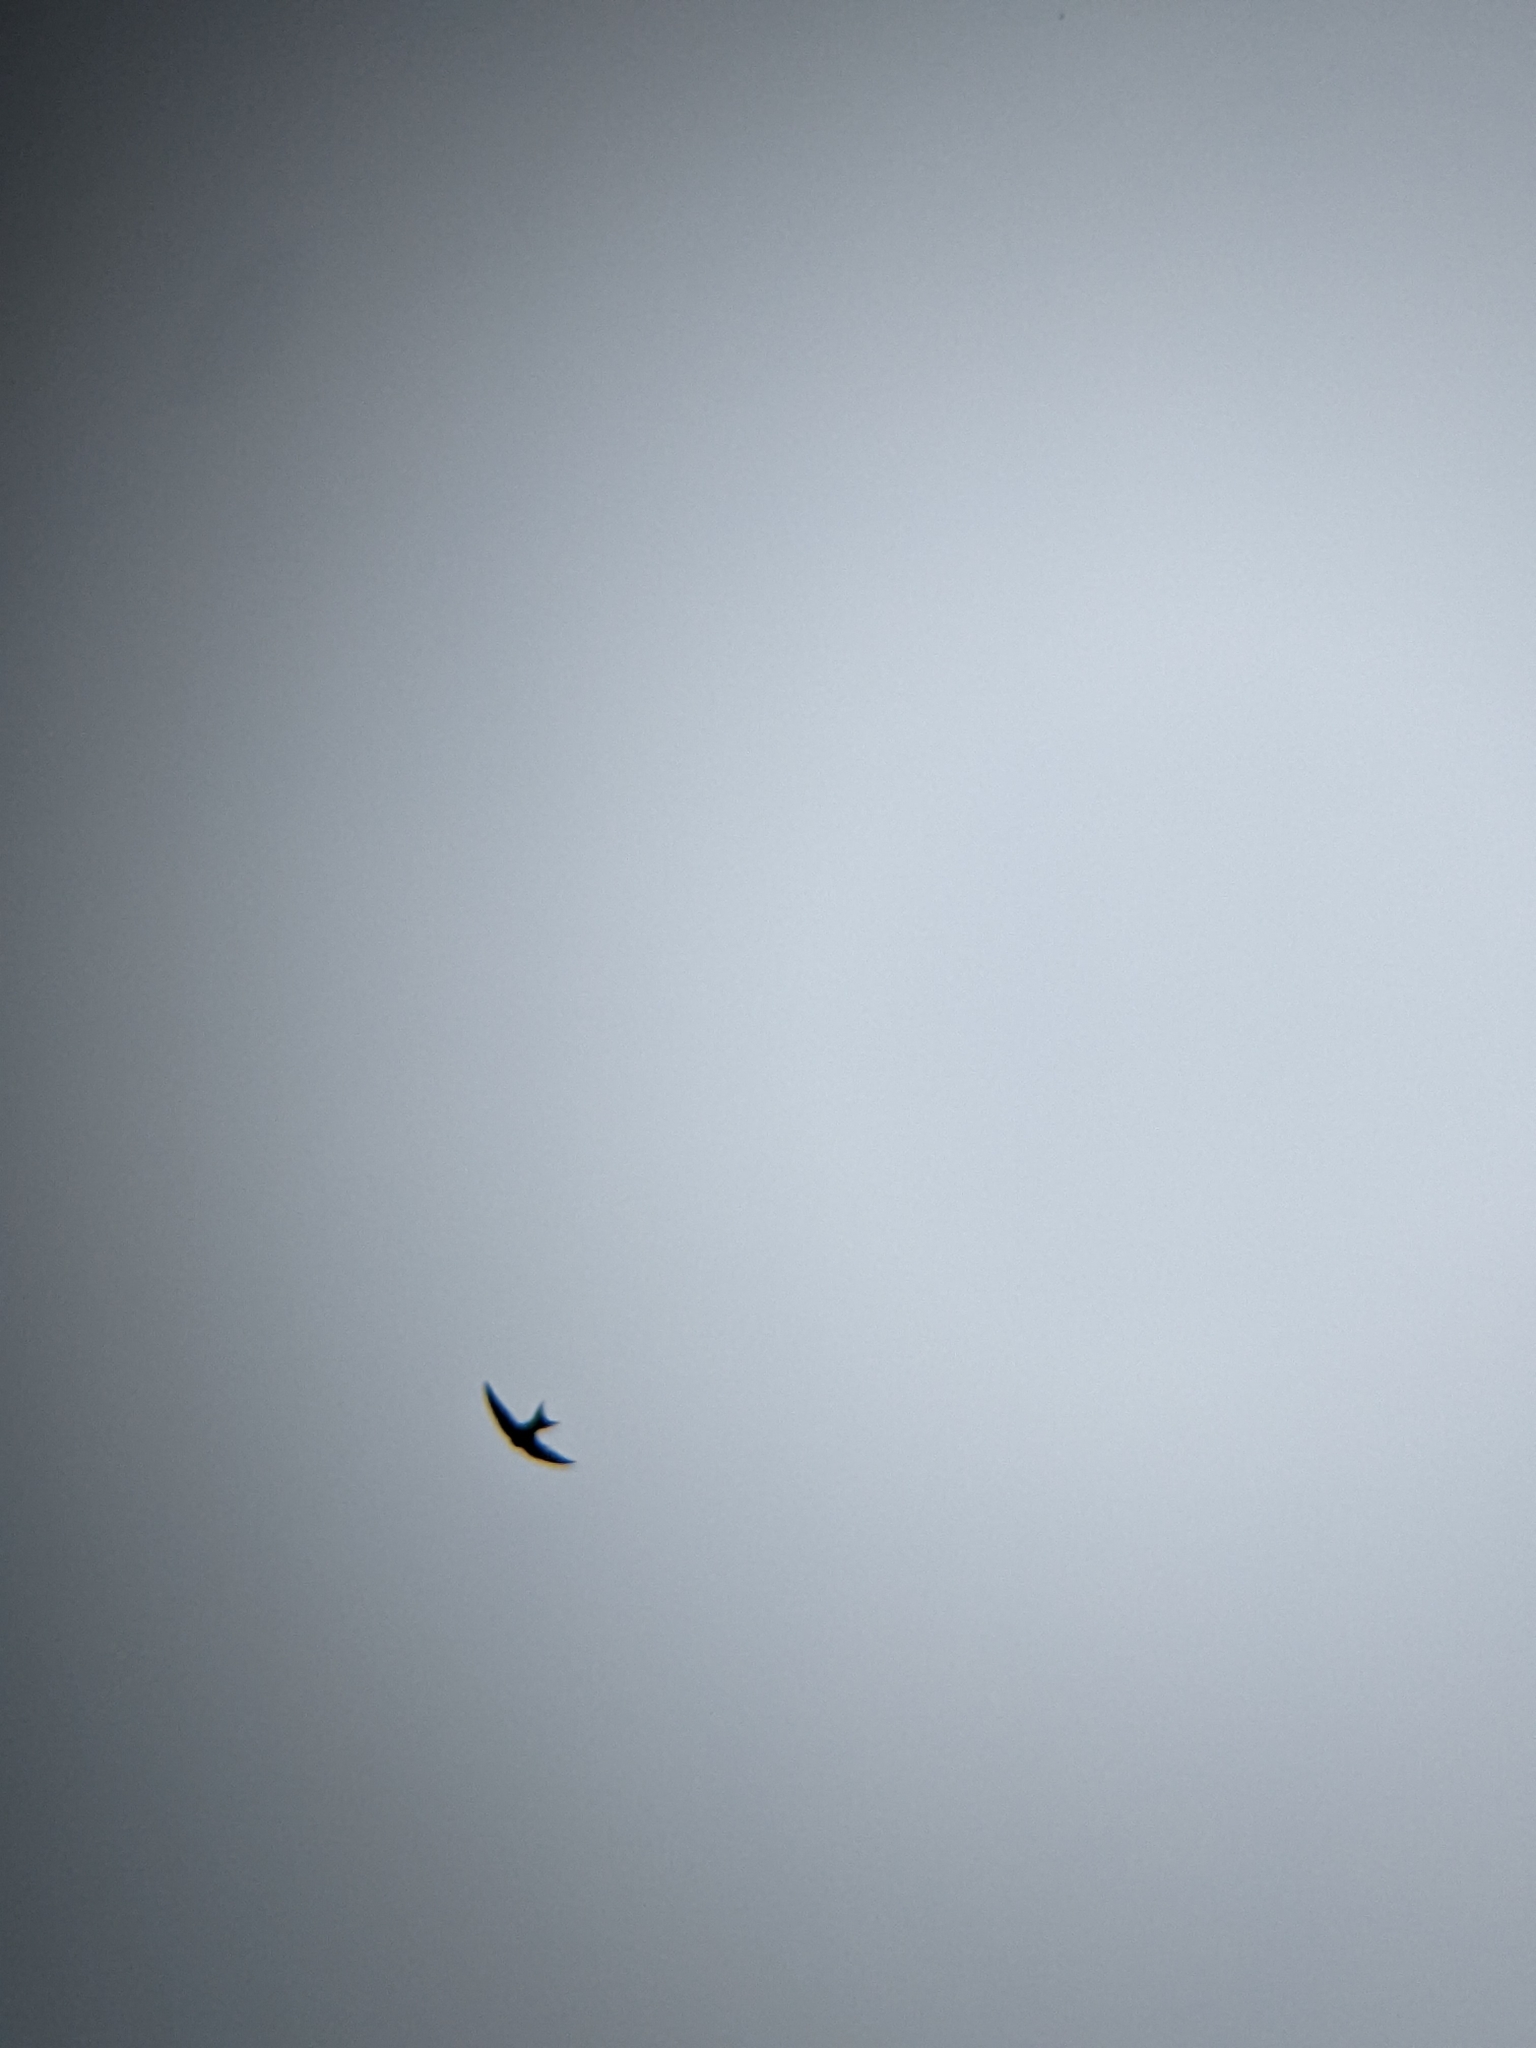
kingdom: Animalia
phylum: Chordata
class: Aves
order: Apodiformes
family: Apodidae
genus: Apus
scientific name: Apus apus
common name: Common swift
